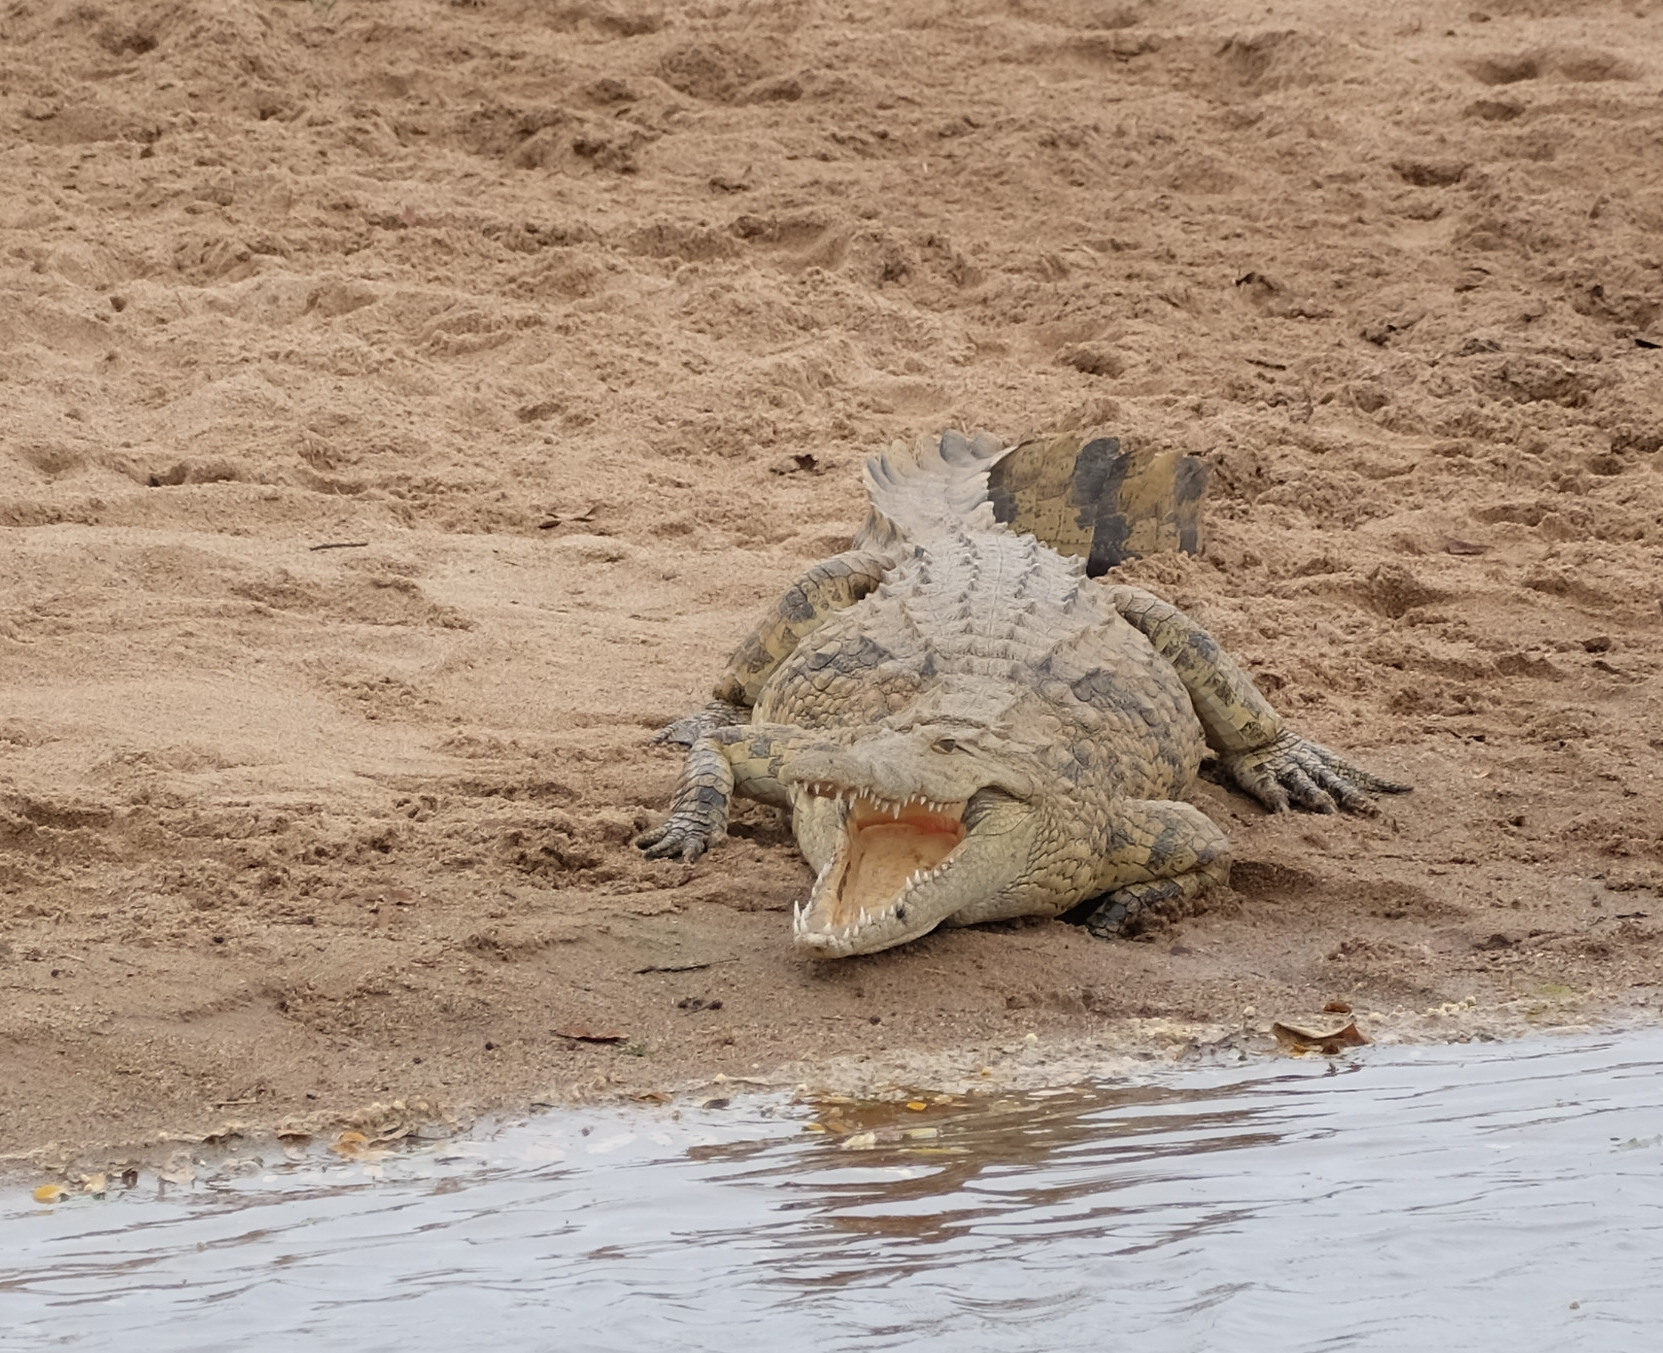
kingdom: Animalia
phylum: Chordata
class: Crocodylia
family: Crocodylidae
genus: Crocodylus
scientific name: Crocodylus niloticus
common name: Nile crocodile
